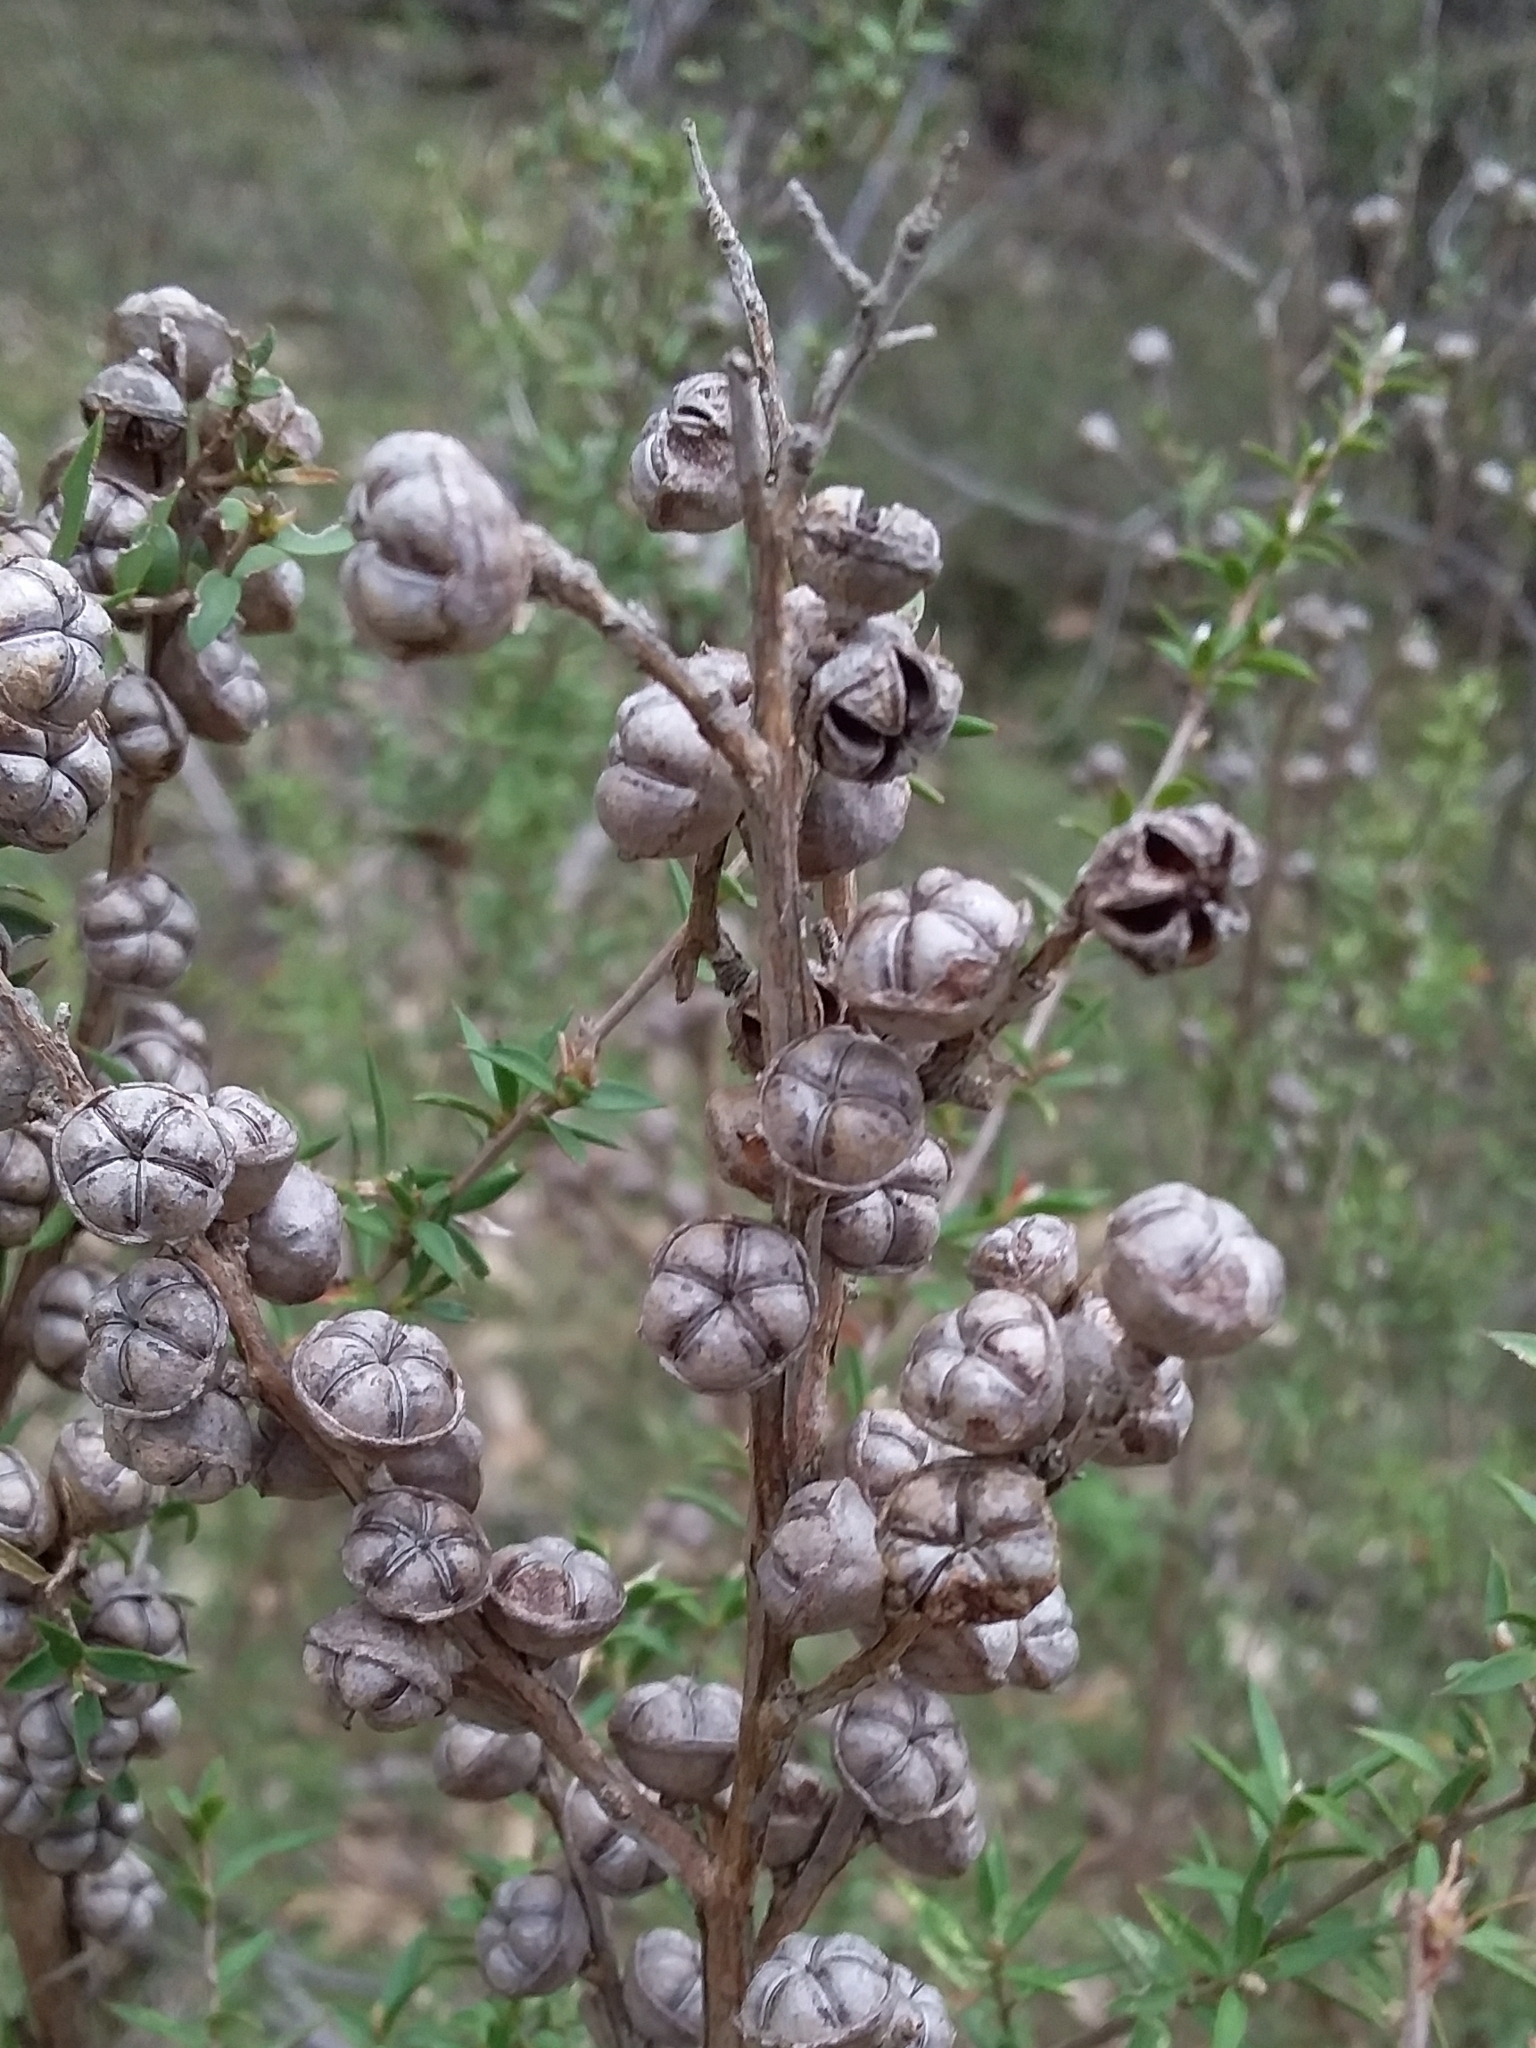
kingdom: Plantae
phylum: Tracheophyta
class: Magnoliopsida
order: Myrtales
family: Myrtaceae
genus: Leptospermum
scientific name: Leptospermum continentale
